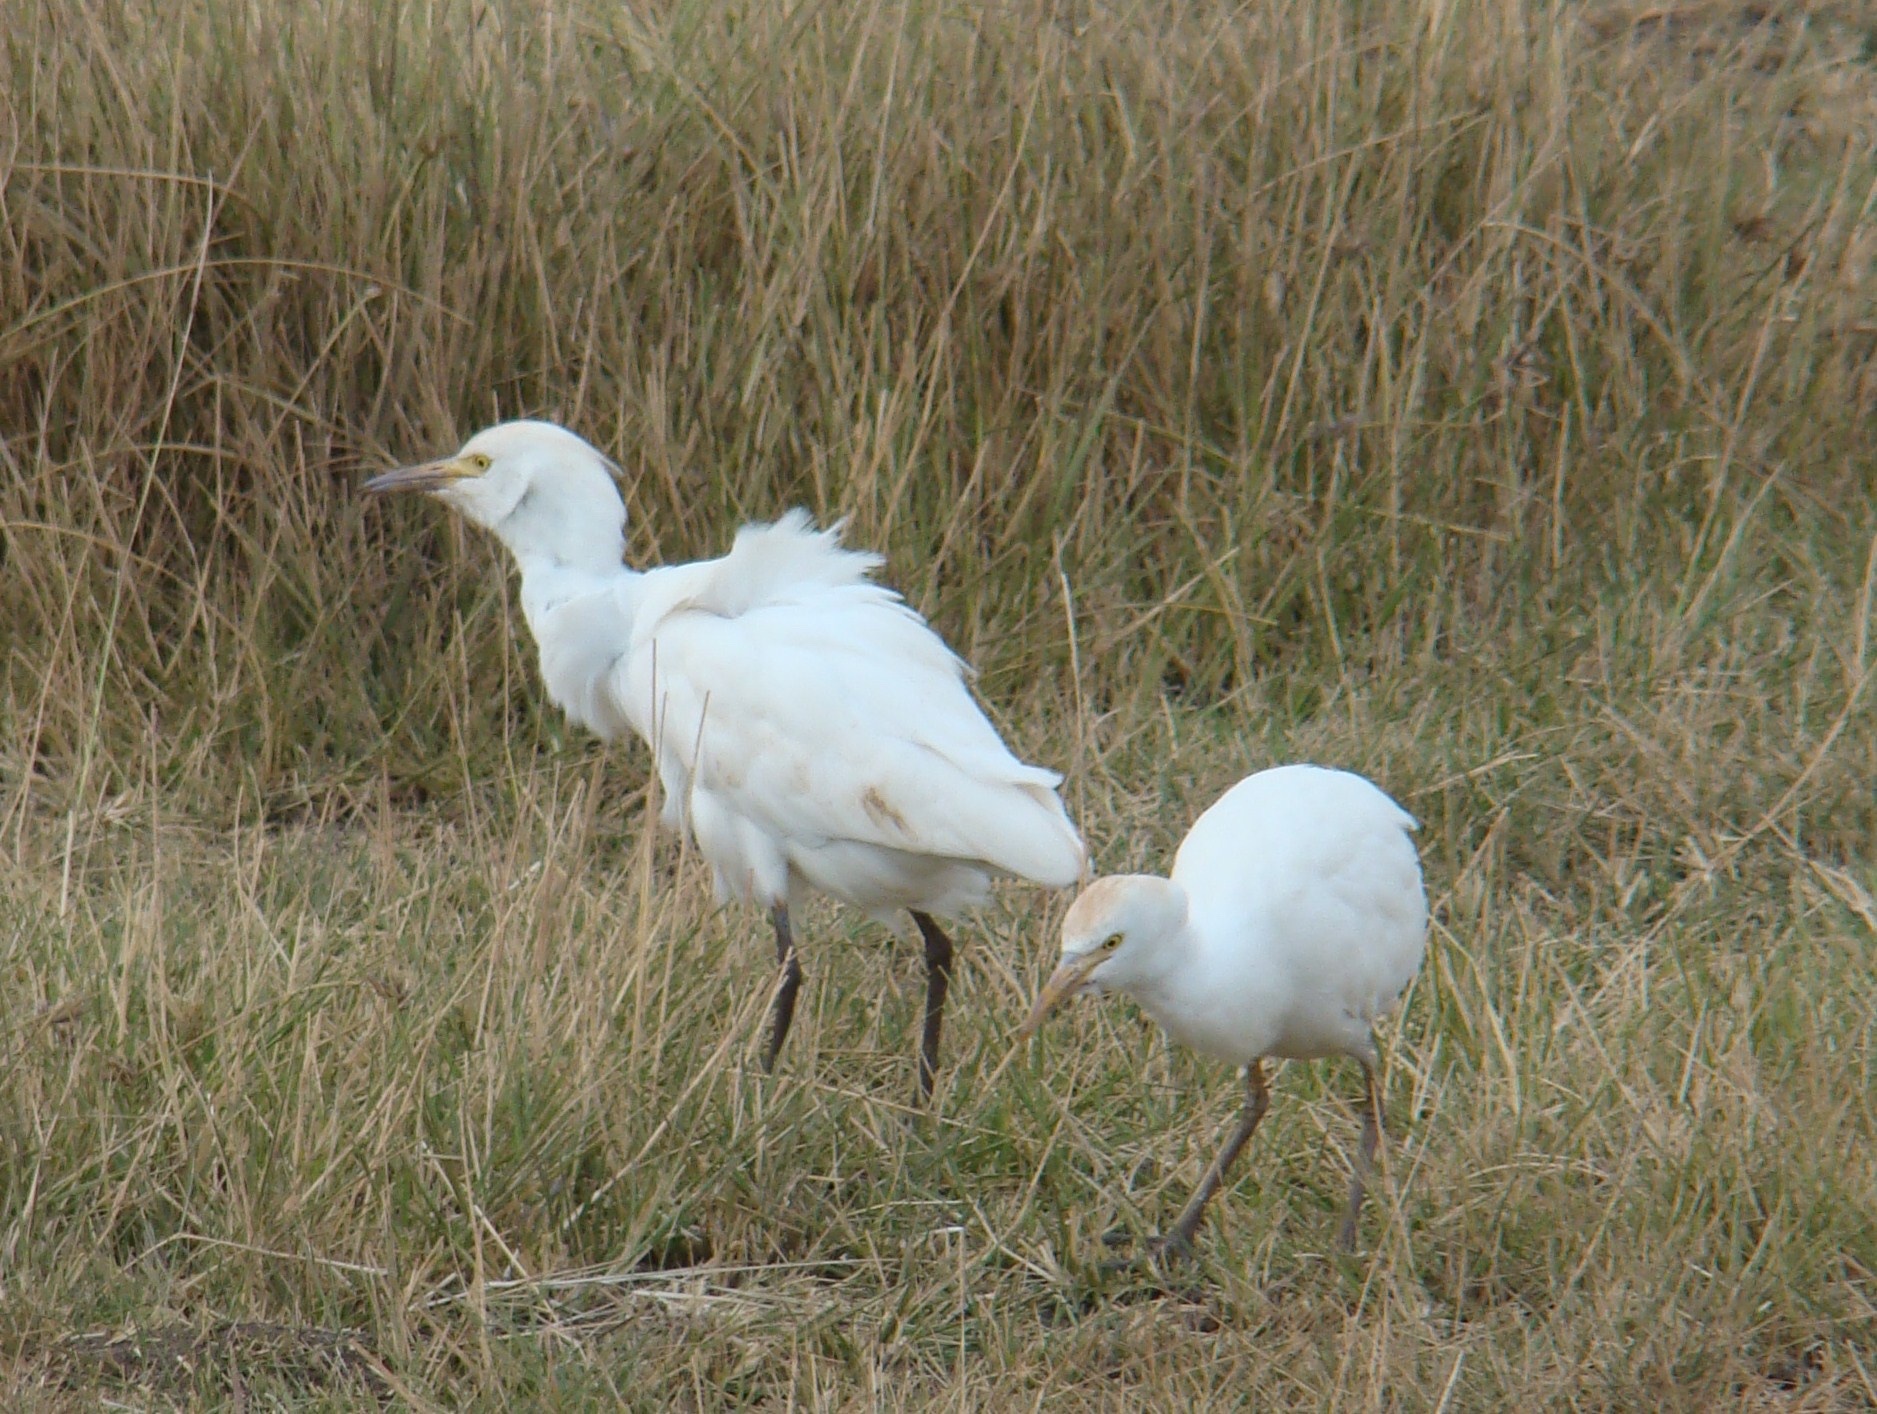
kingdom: Animalia
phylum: Chordata
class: Aves
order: Pelecaniformes
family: Ardeidae
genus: Bubulcus
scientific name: Bubulcus ibis
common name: Cattle egret
